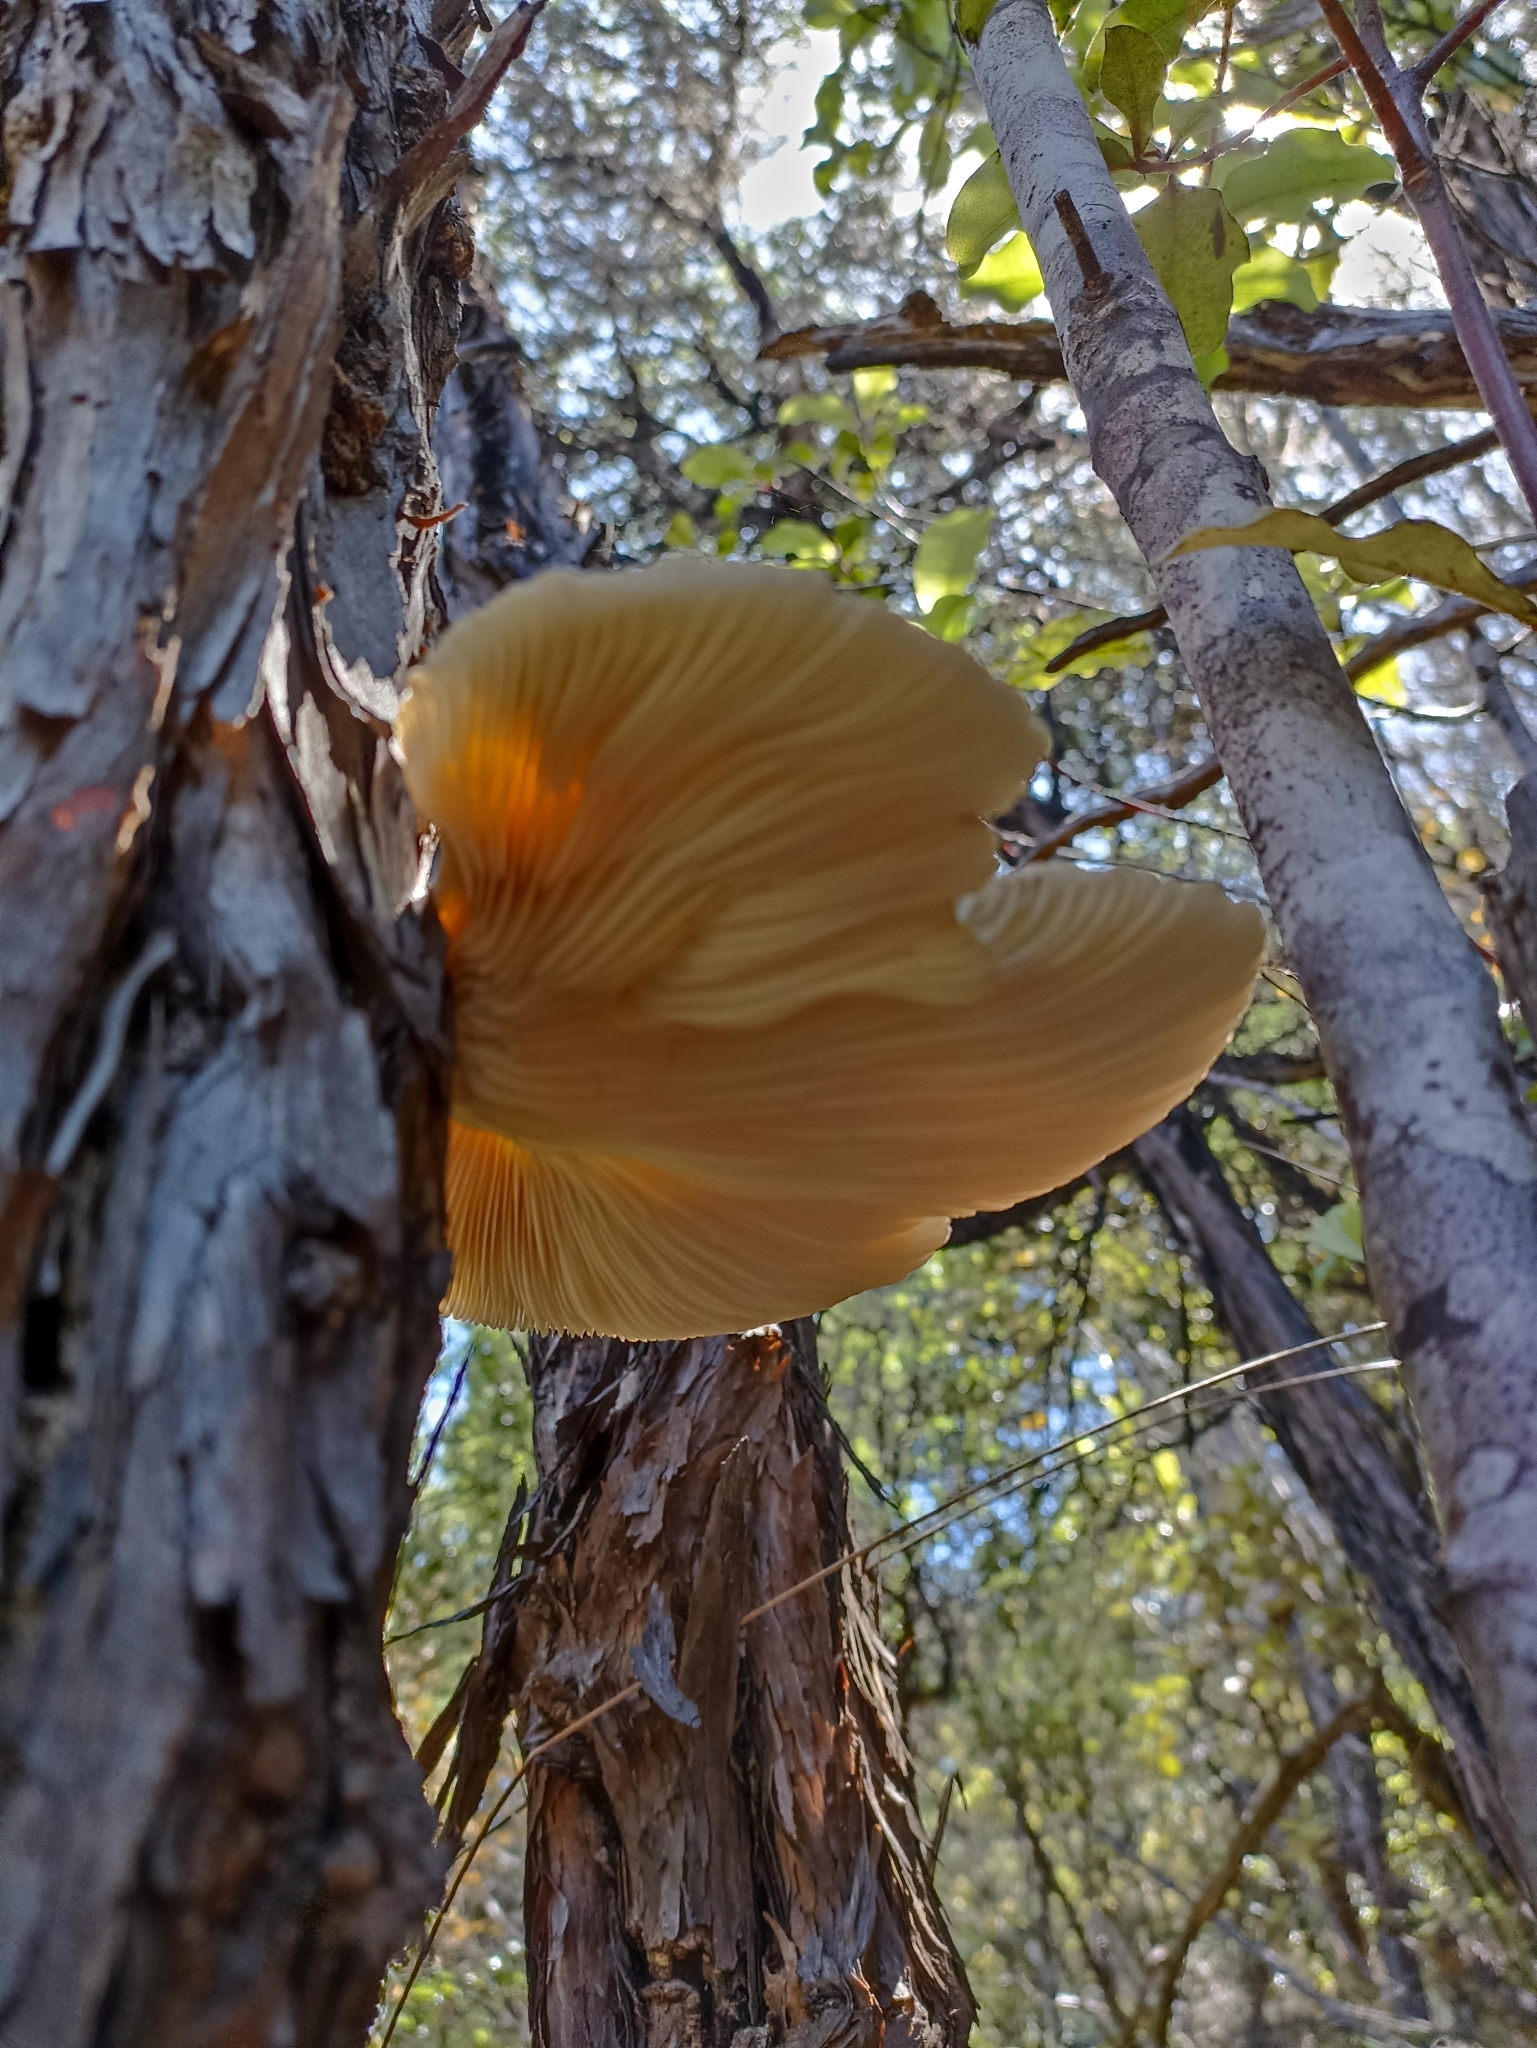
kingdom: Fungi
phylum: Basidiomycota
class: Agaricomycetes
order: Agaricales
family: Pleurotaceae
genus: Pleurotus
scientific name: Pleurotus australis
